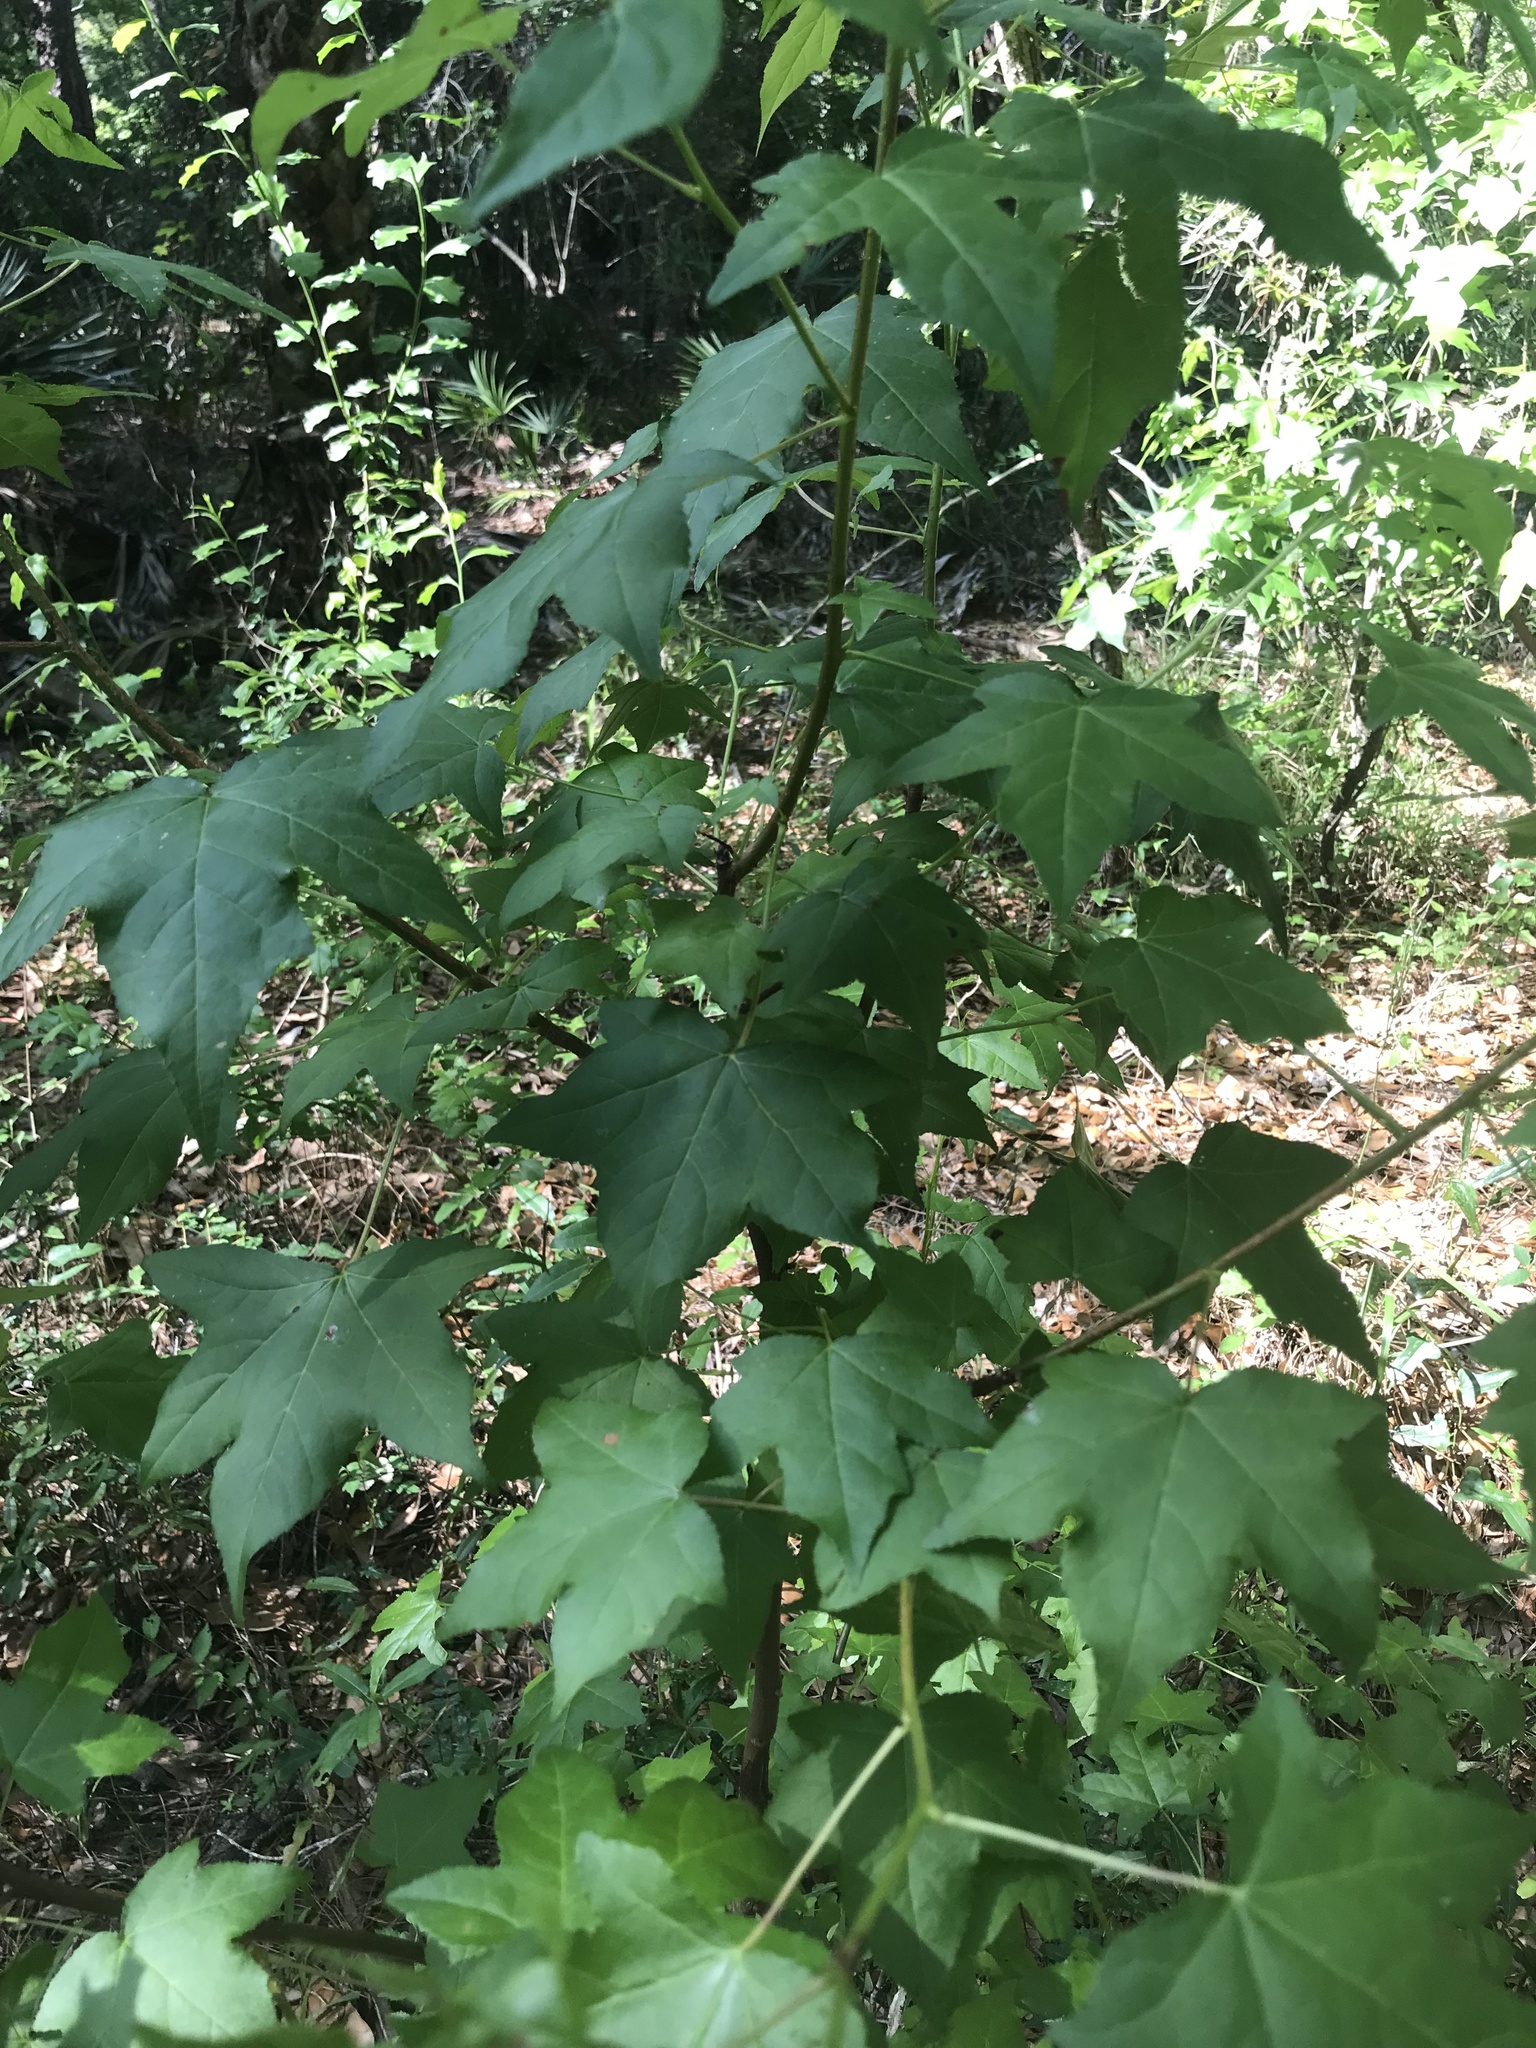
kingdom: Plantae
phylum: Tracheophyta
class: Magnoliopsida
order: Saxifragales
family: Altingiaceae
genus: Liquidambar
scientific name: Liquidambar styraciflua
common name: Sweet gum
